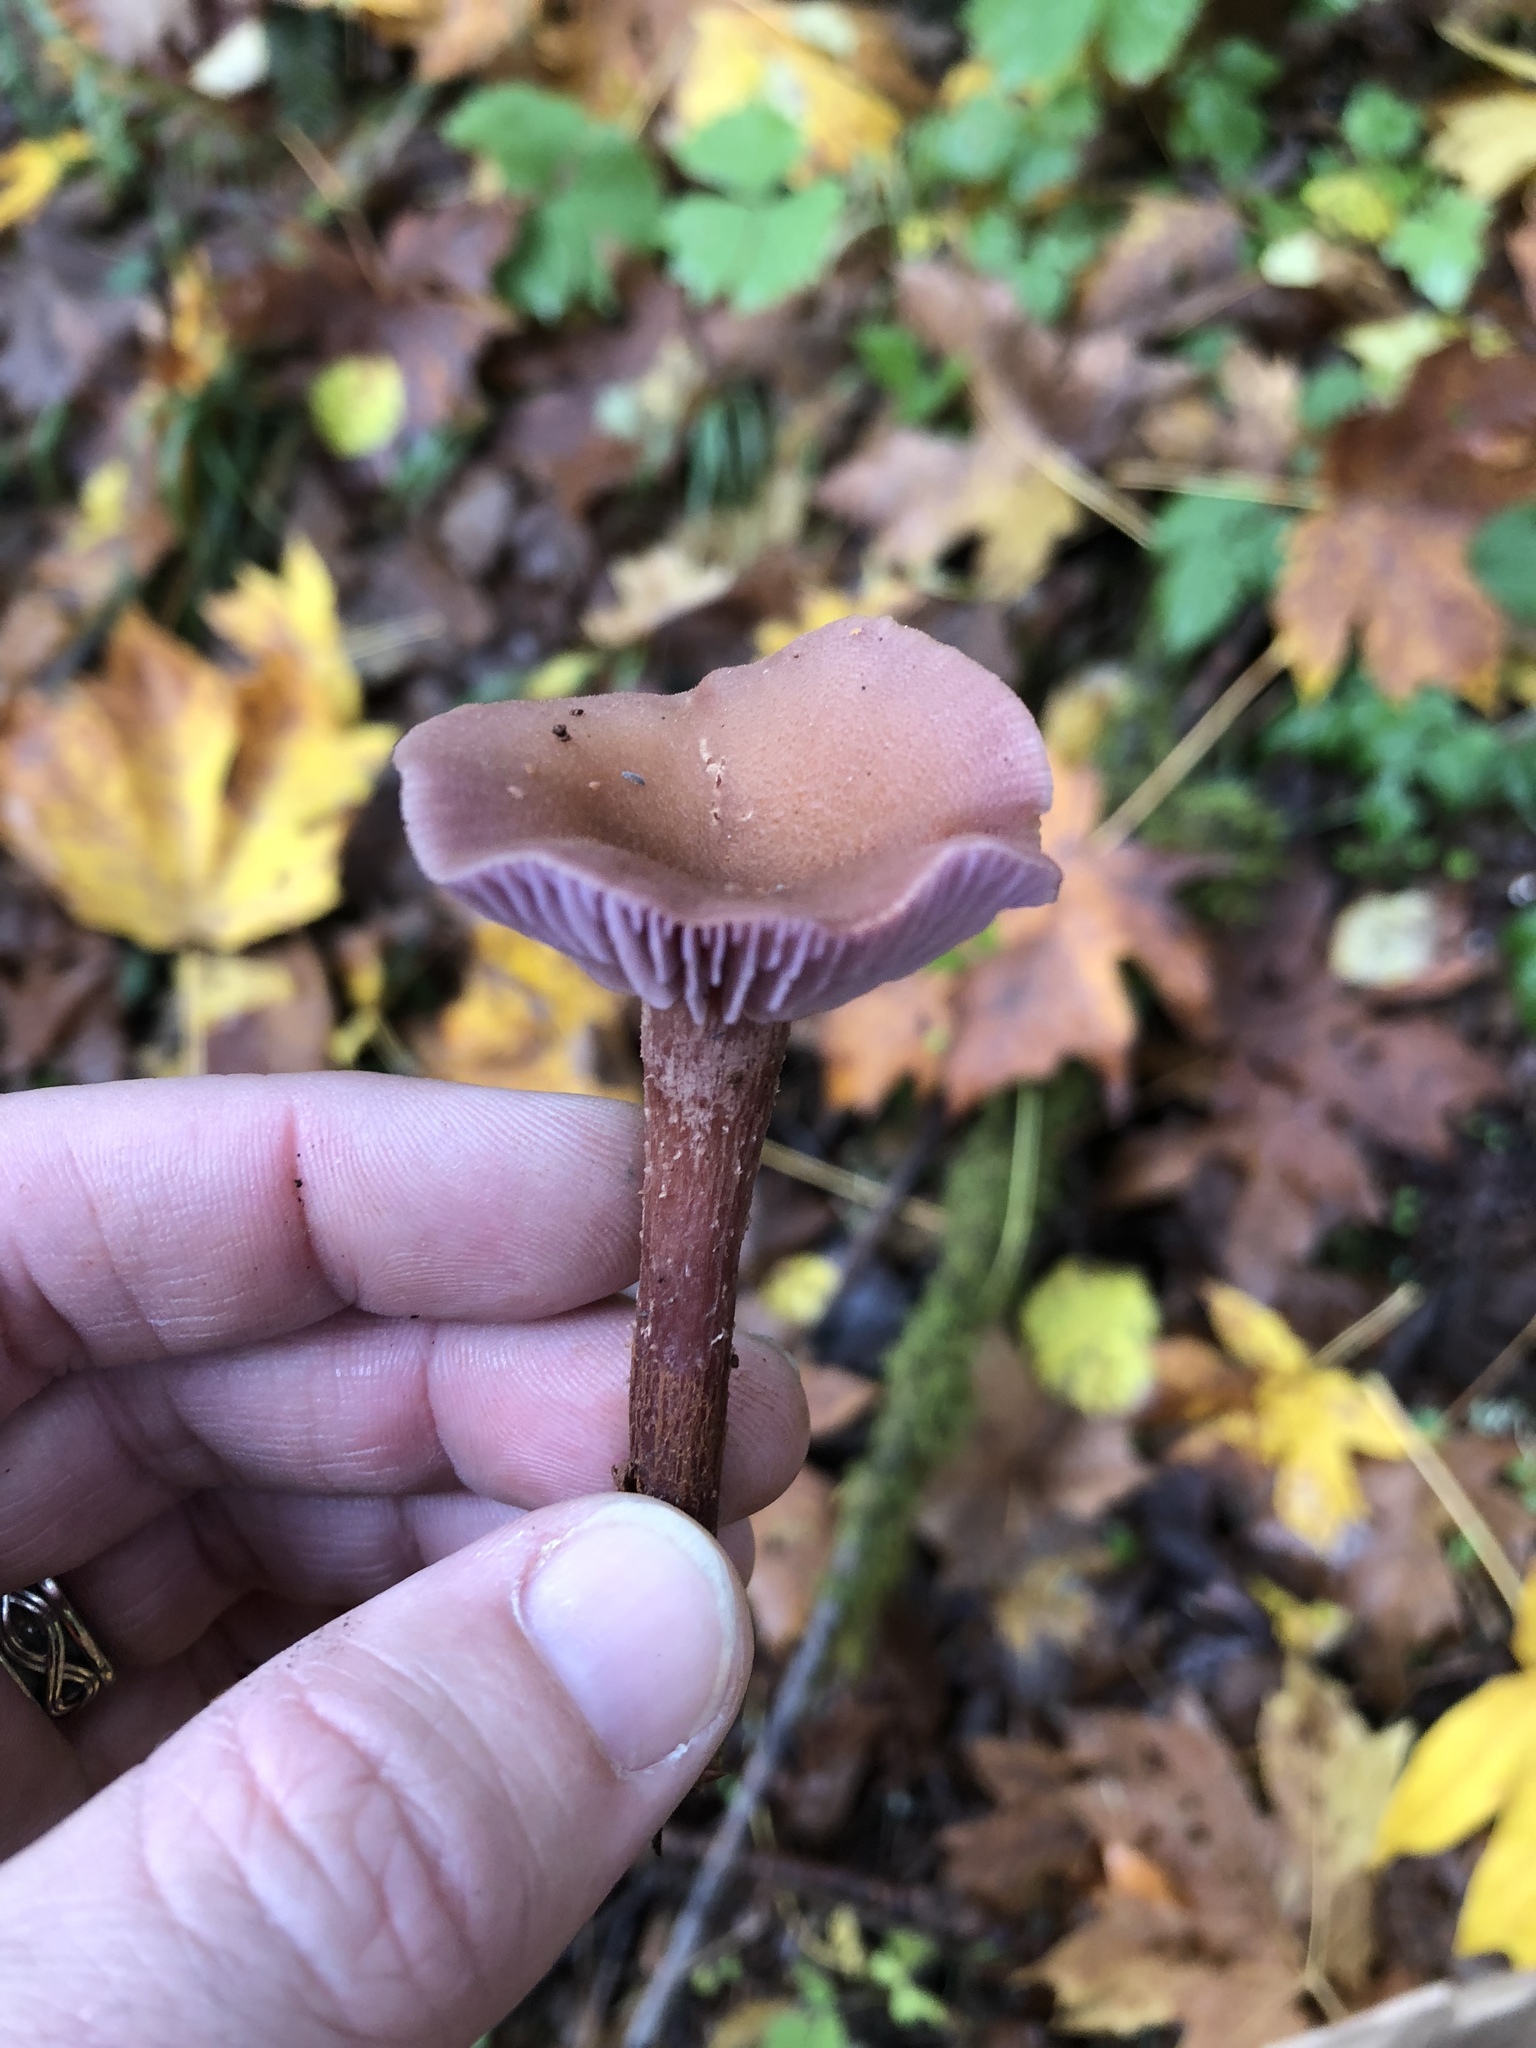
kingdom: Fungi
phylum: Basidiomycota
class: Agaricomycetes
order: Agaricales
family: Hydnangiaceae
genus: Laccaria
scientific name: Laccaria amethysteo-occidentalis
